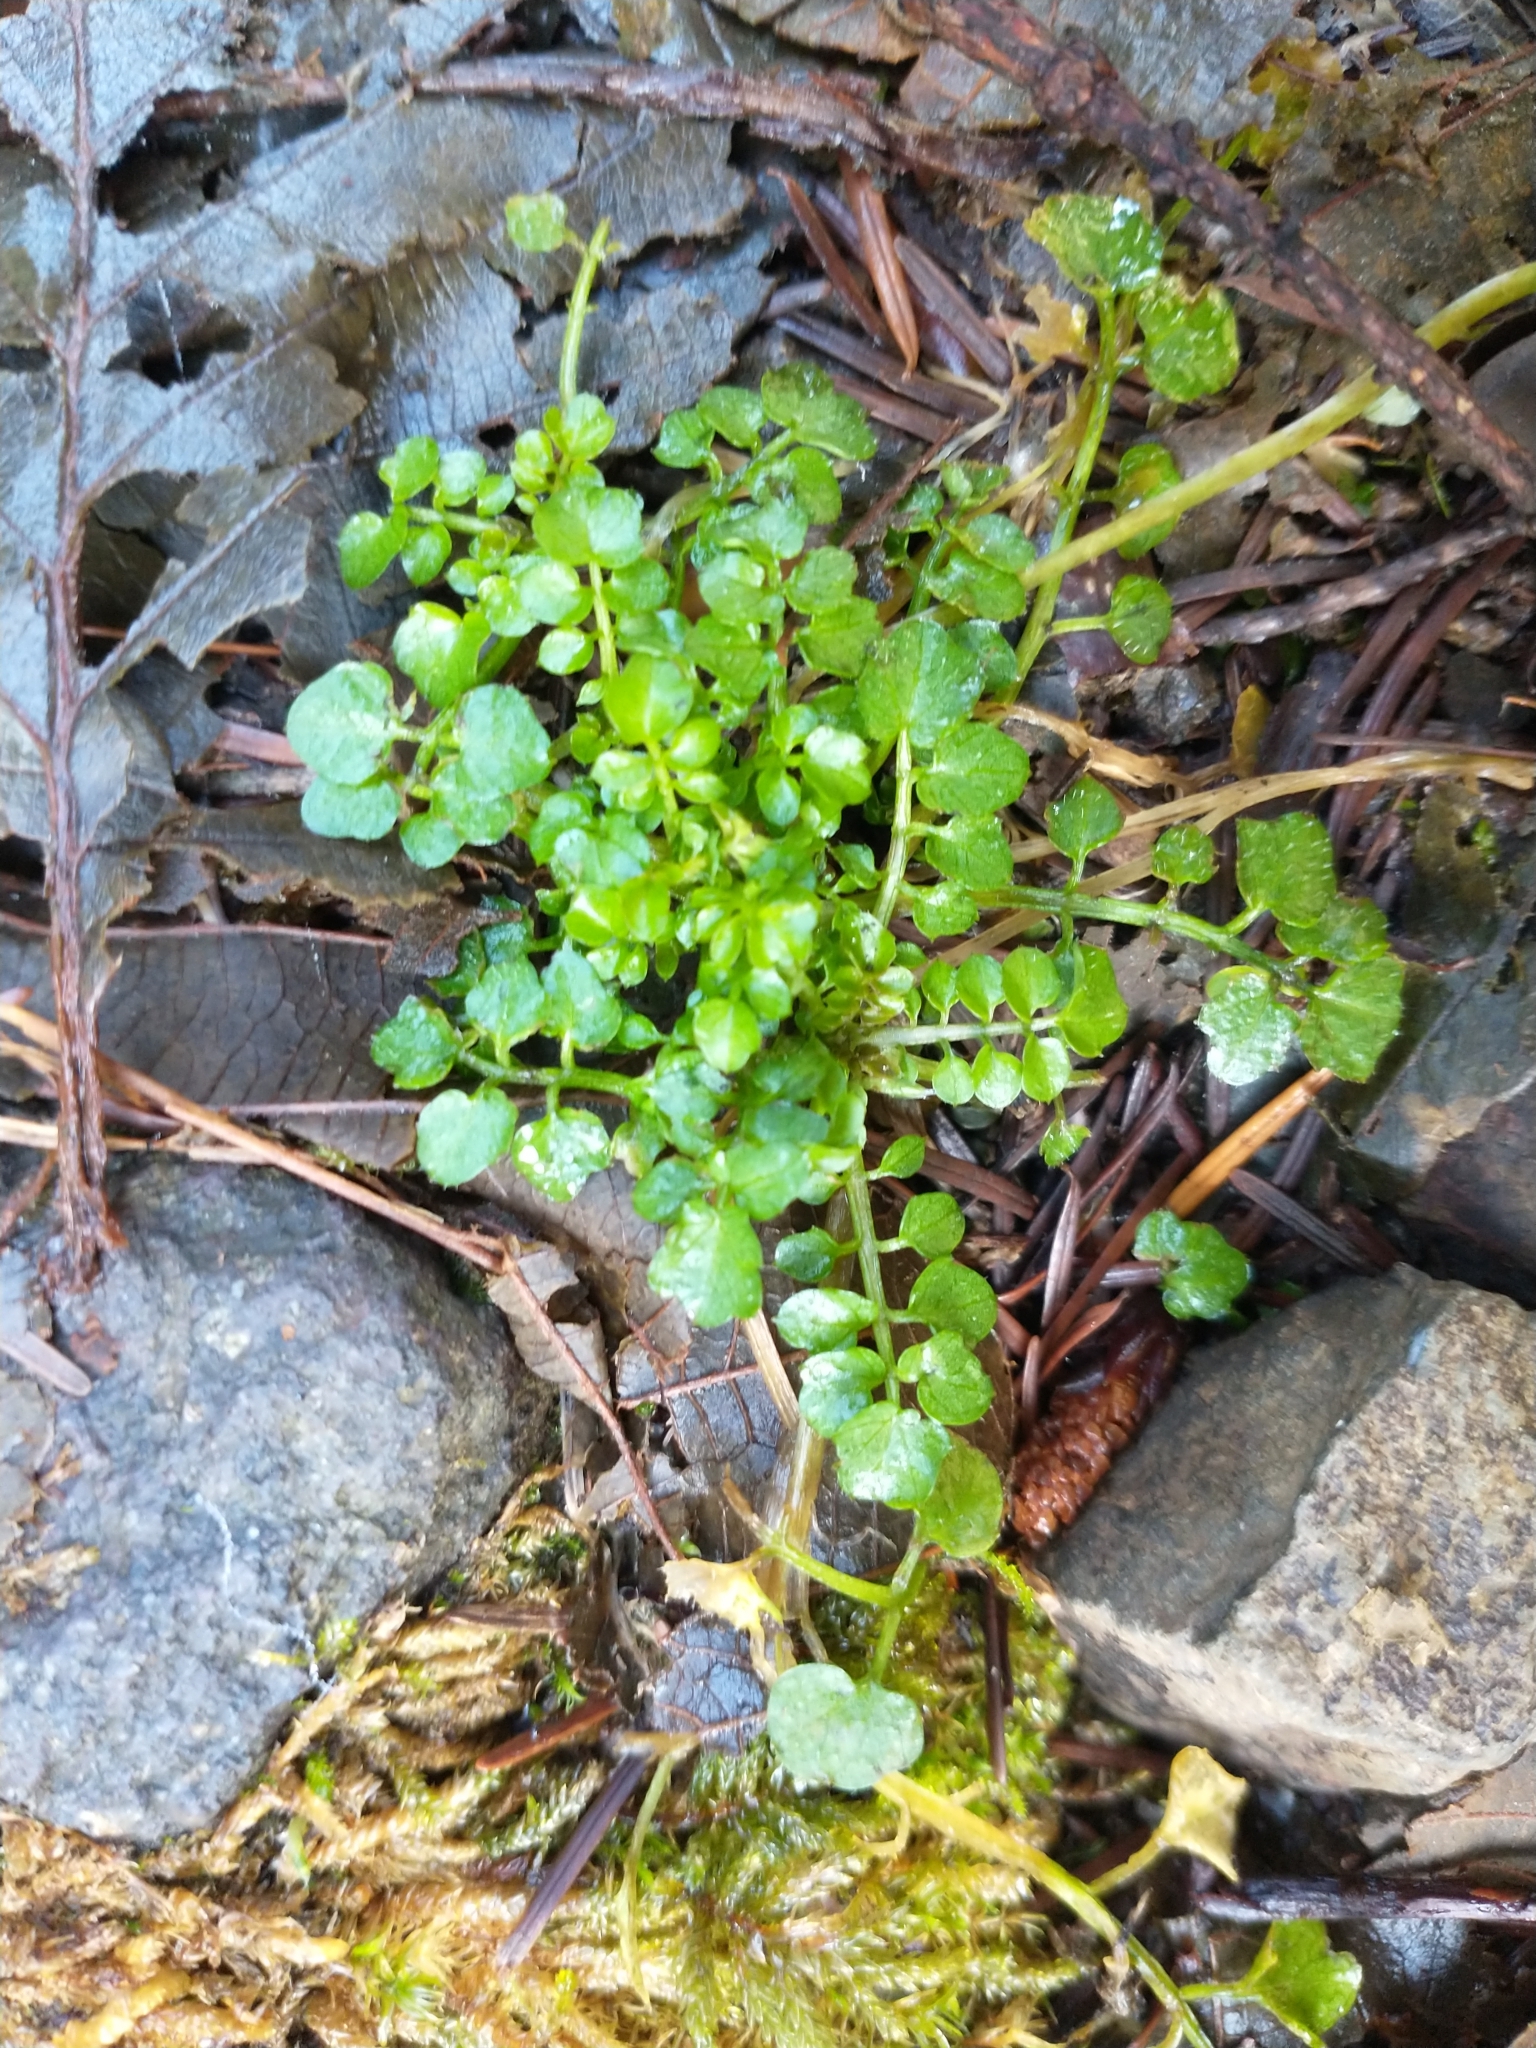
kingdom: Plantae
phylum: Tracheophyta
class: Magnoliopsida
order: Brassicales
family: Brassicaceae
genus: Cardamine
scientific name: Cardamine flexuosa
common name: Woodland bittercress
